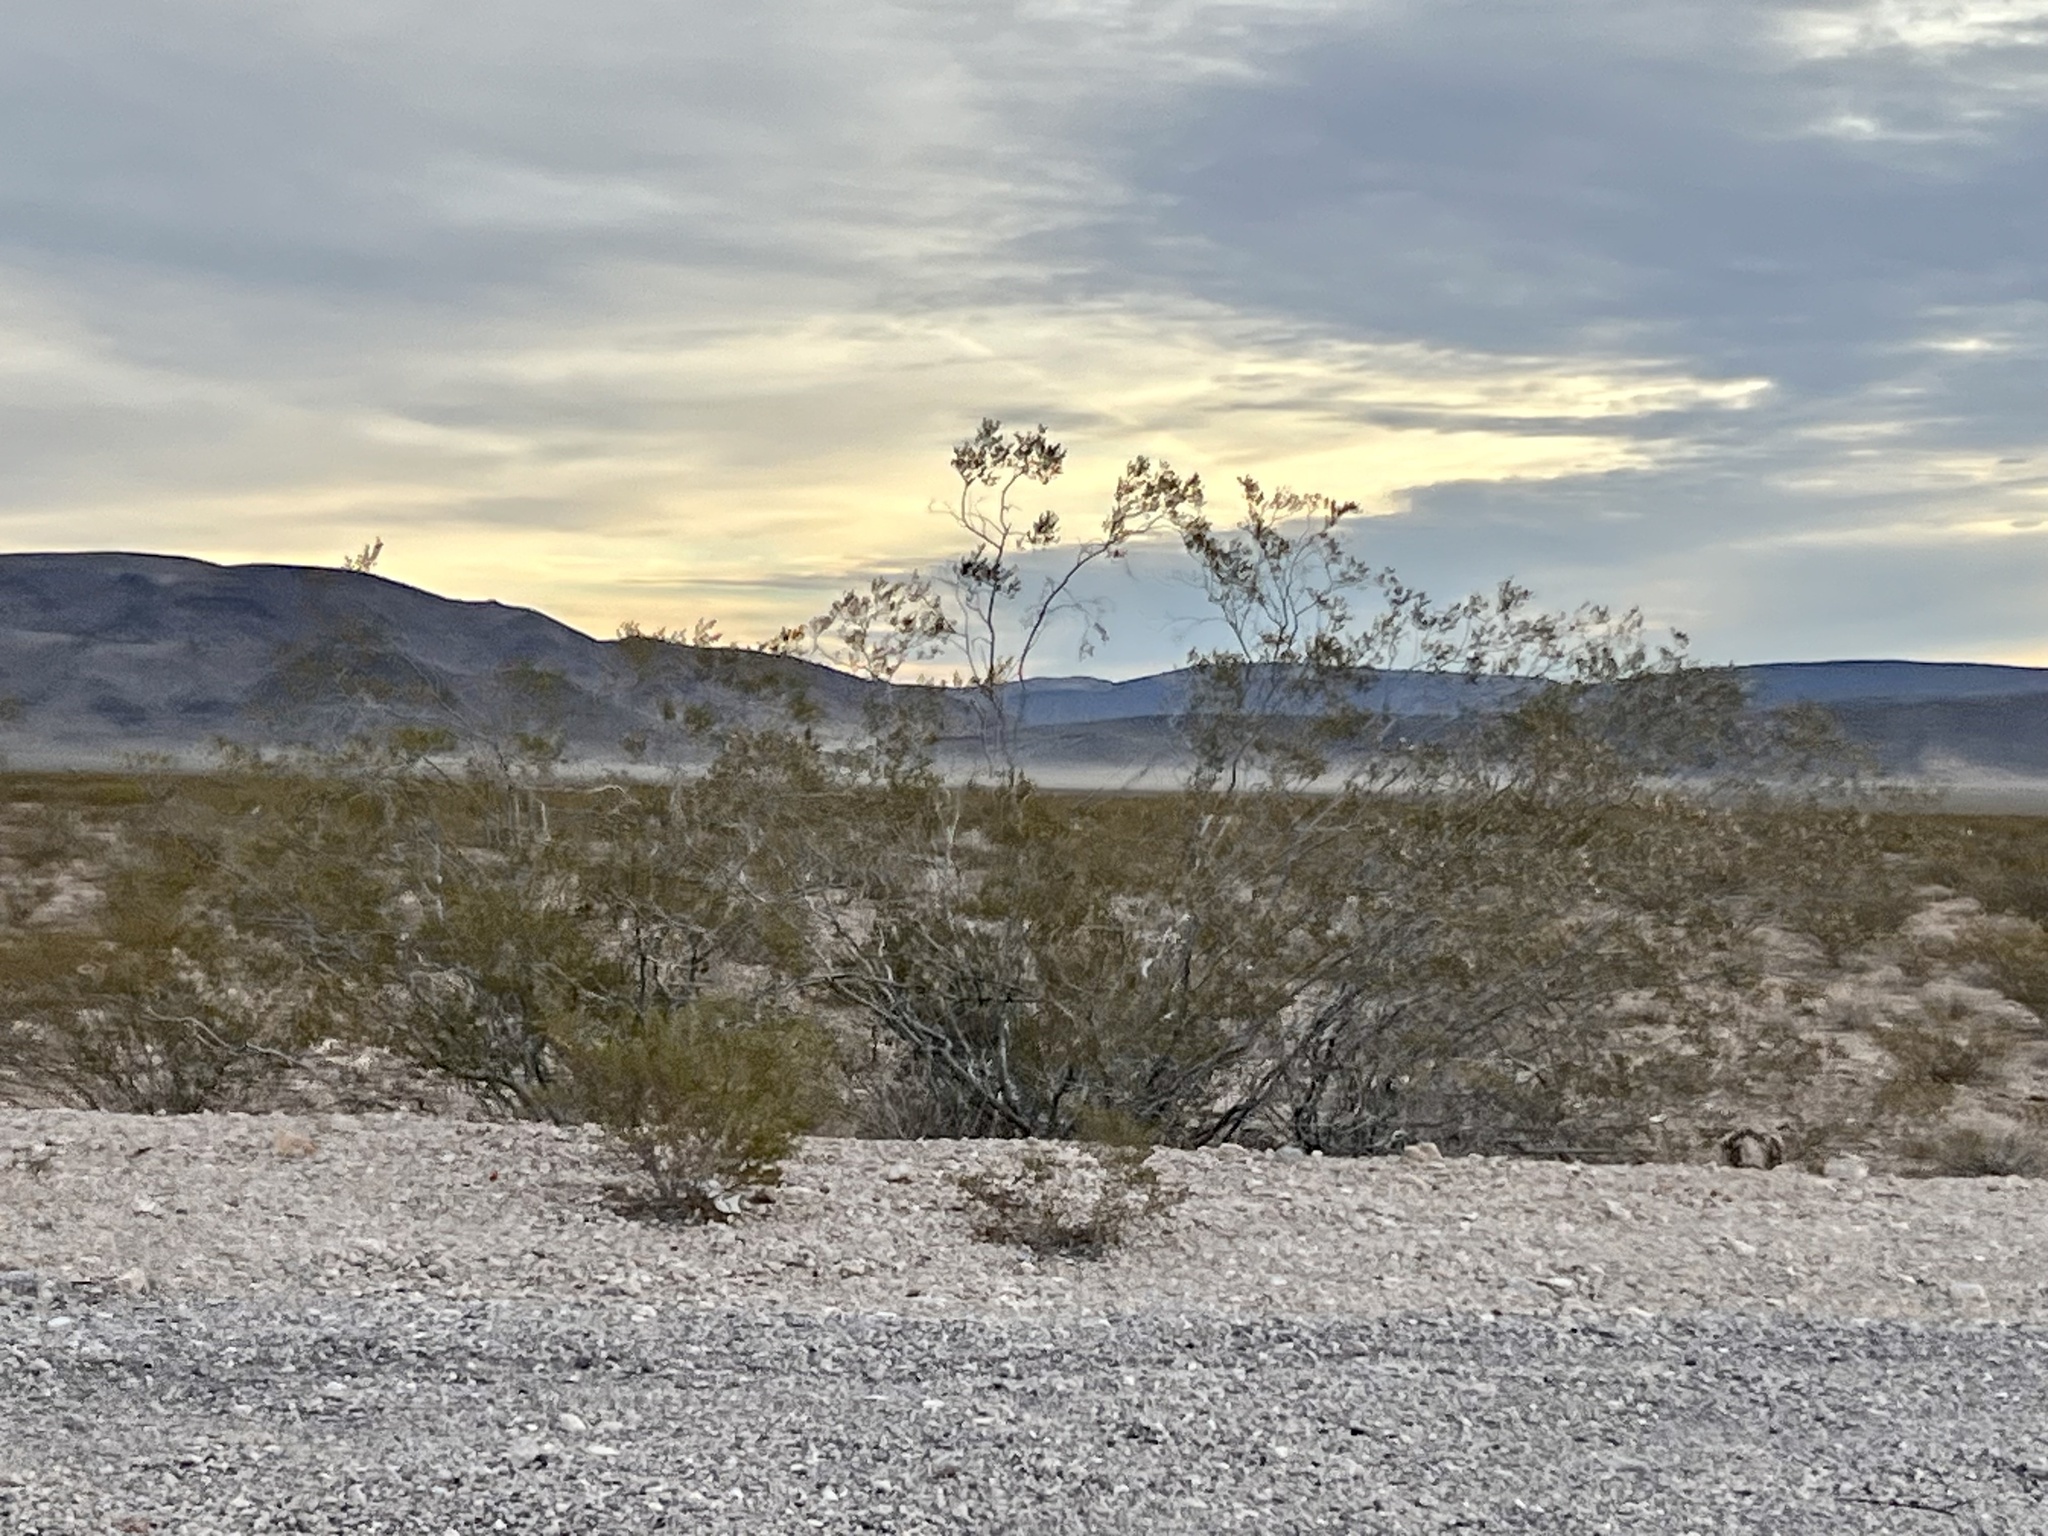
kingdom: Plantae
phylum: Tracheophyta
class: Magnoliopsida
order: Zygophyllales
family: Zygophyllaceae
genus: Larrea
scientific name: Larrea tridentata
